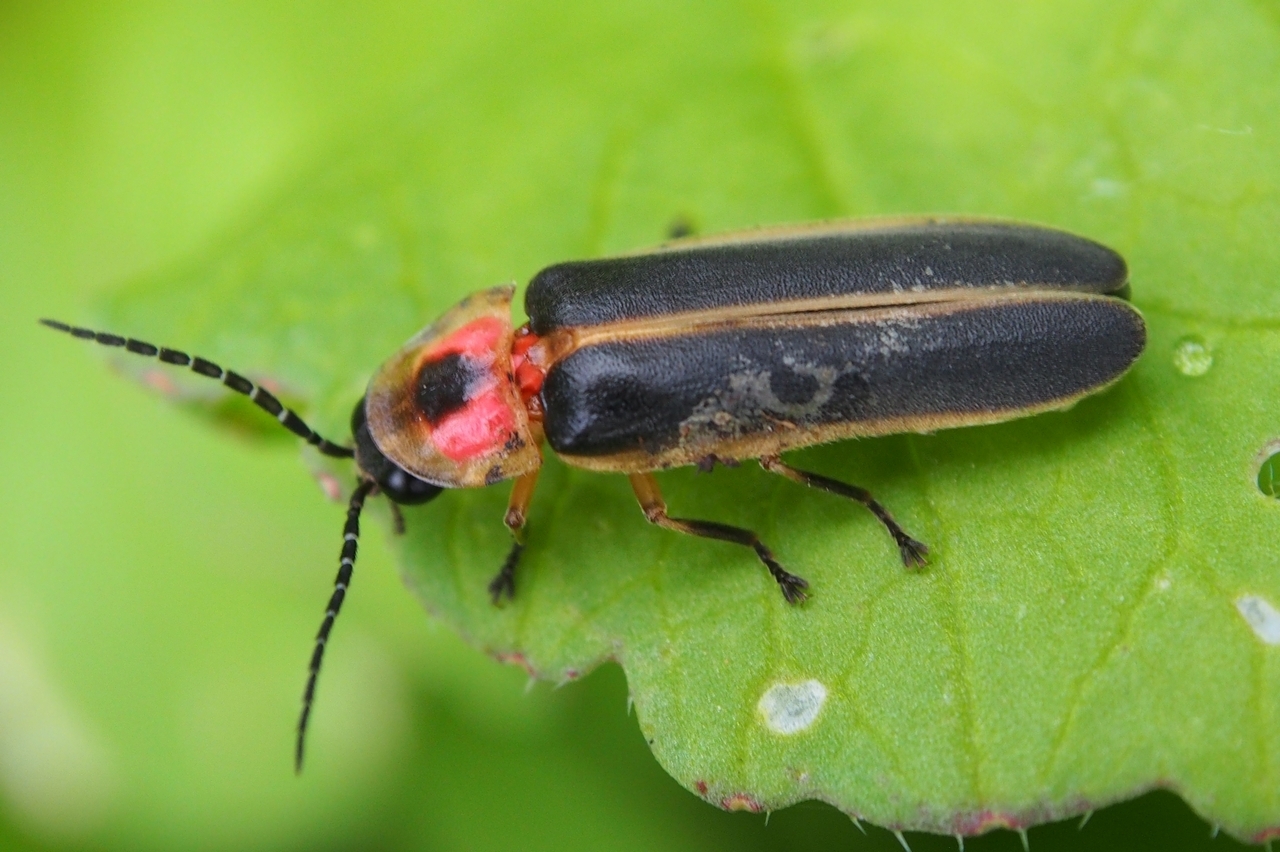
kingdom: Animalia
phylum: Arthropoda
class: Insecta
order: Coleoptera
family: Lampyridae
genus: Photinus
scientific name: Photinus pyralis
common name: Big dipper firefly
